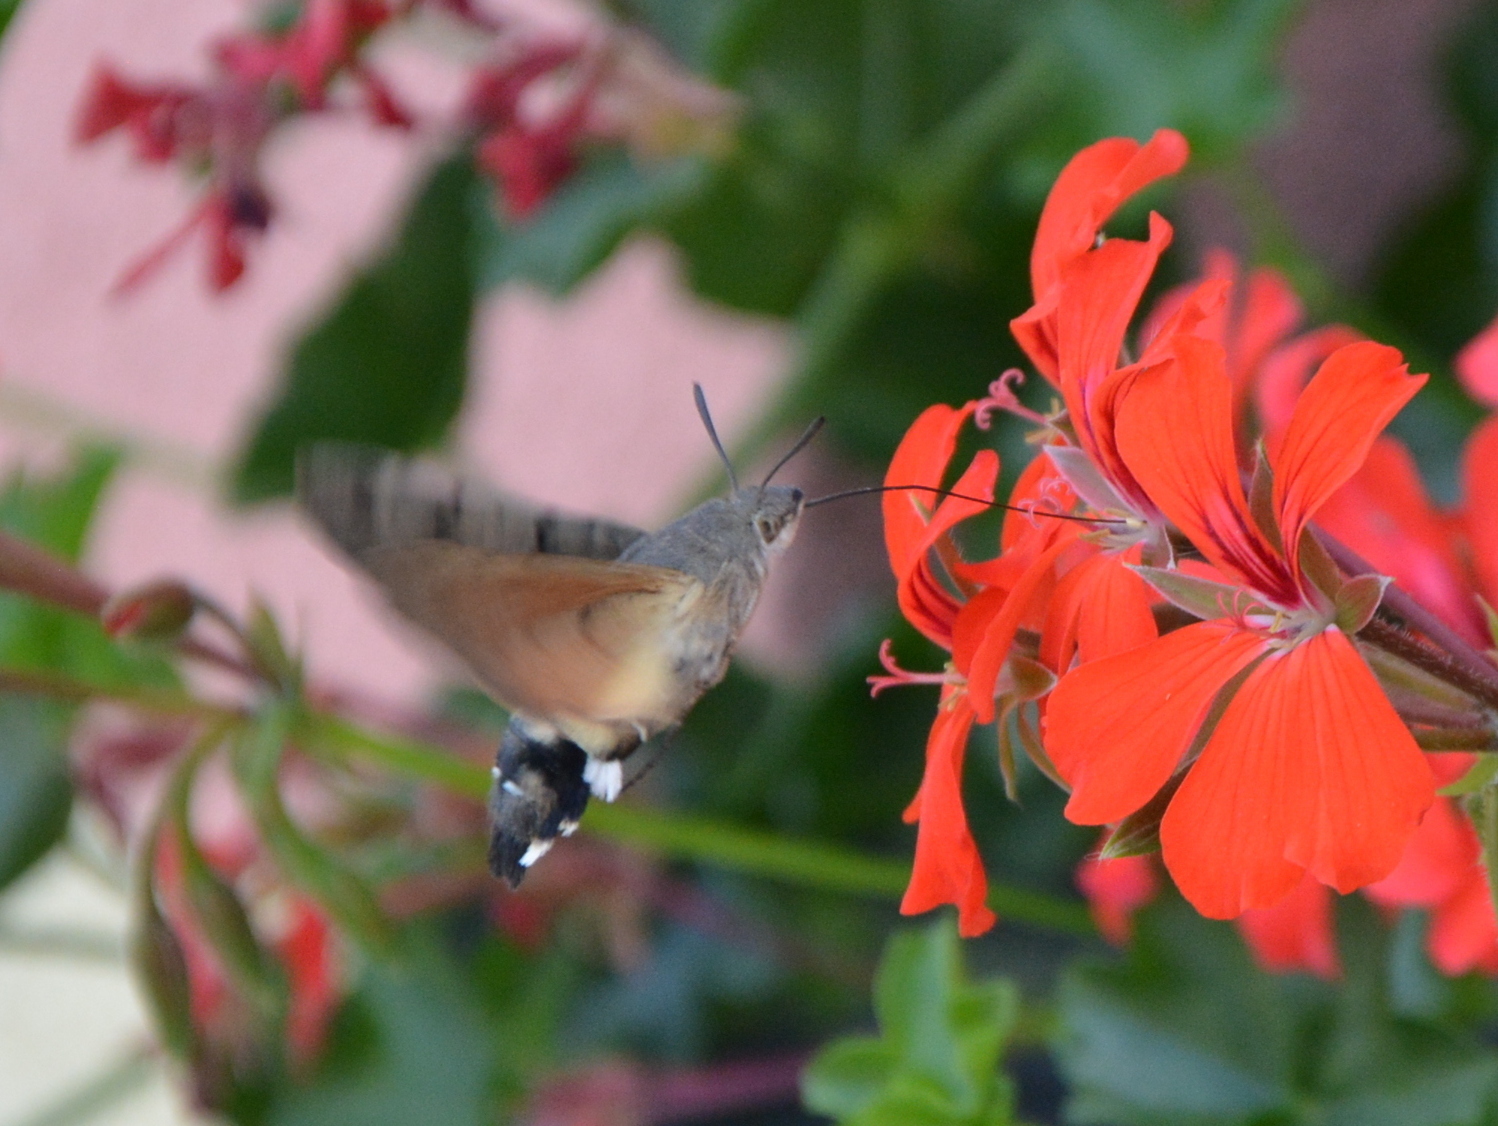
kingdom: Animalia
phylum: Arthropoda
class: Insecta
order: Lepidoptera
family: Sphingidae
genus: Macroglossum
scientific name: Macroglossum stellatarum
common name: Humming-bird hawk-moth
